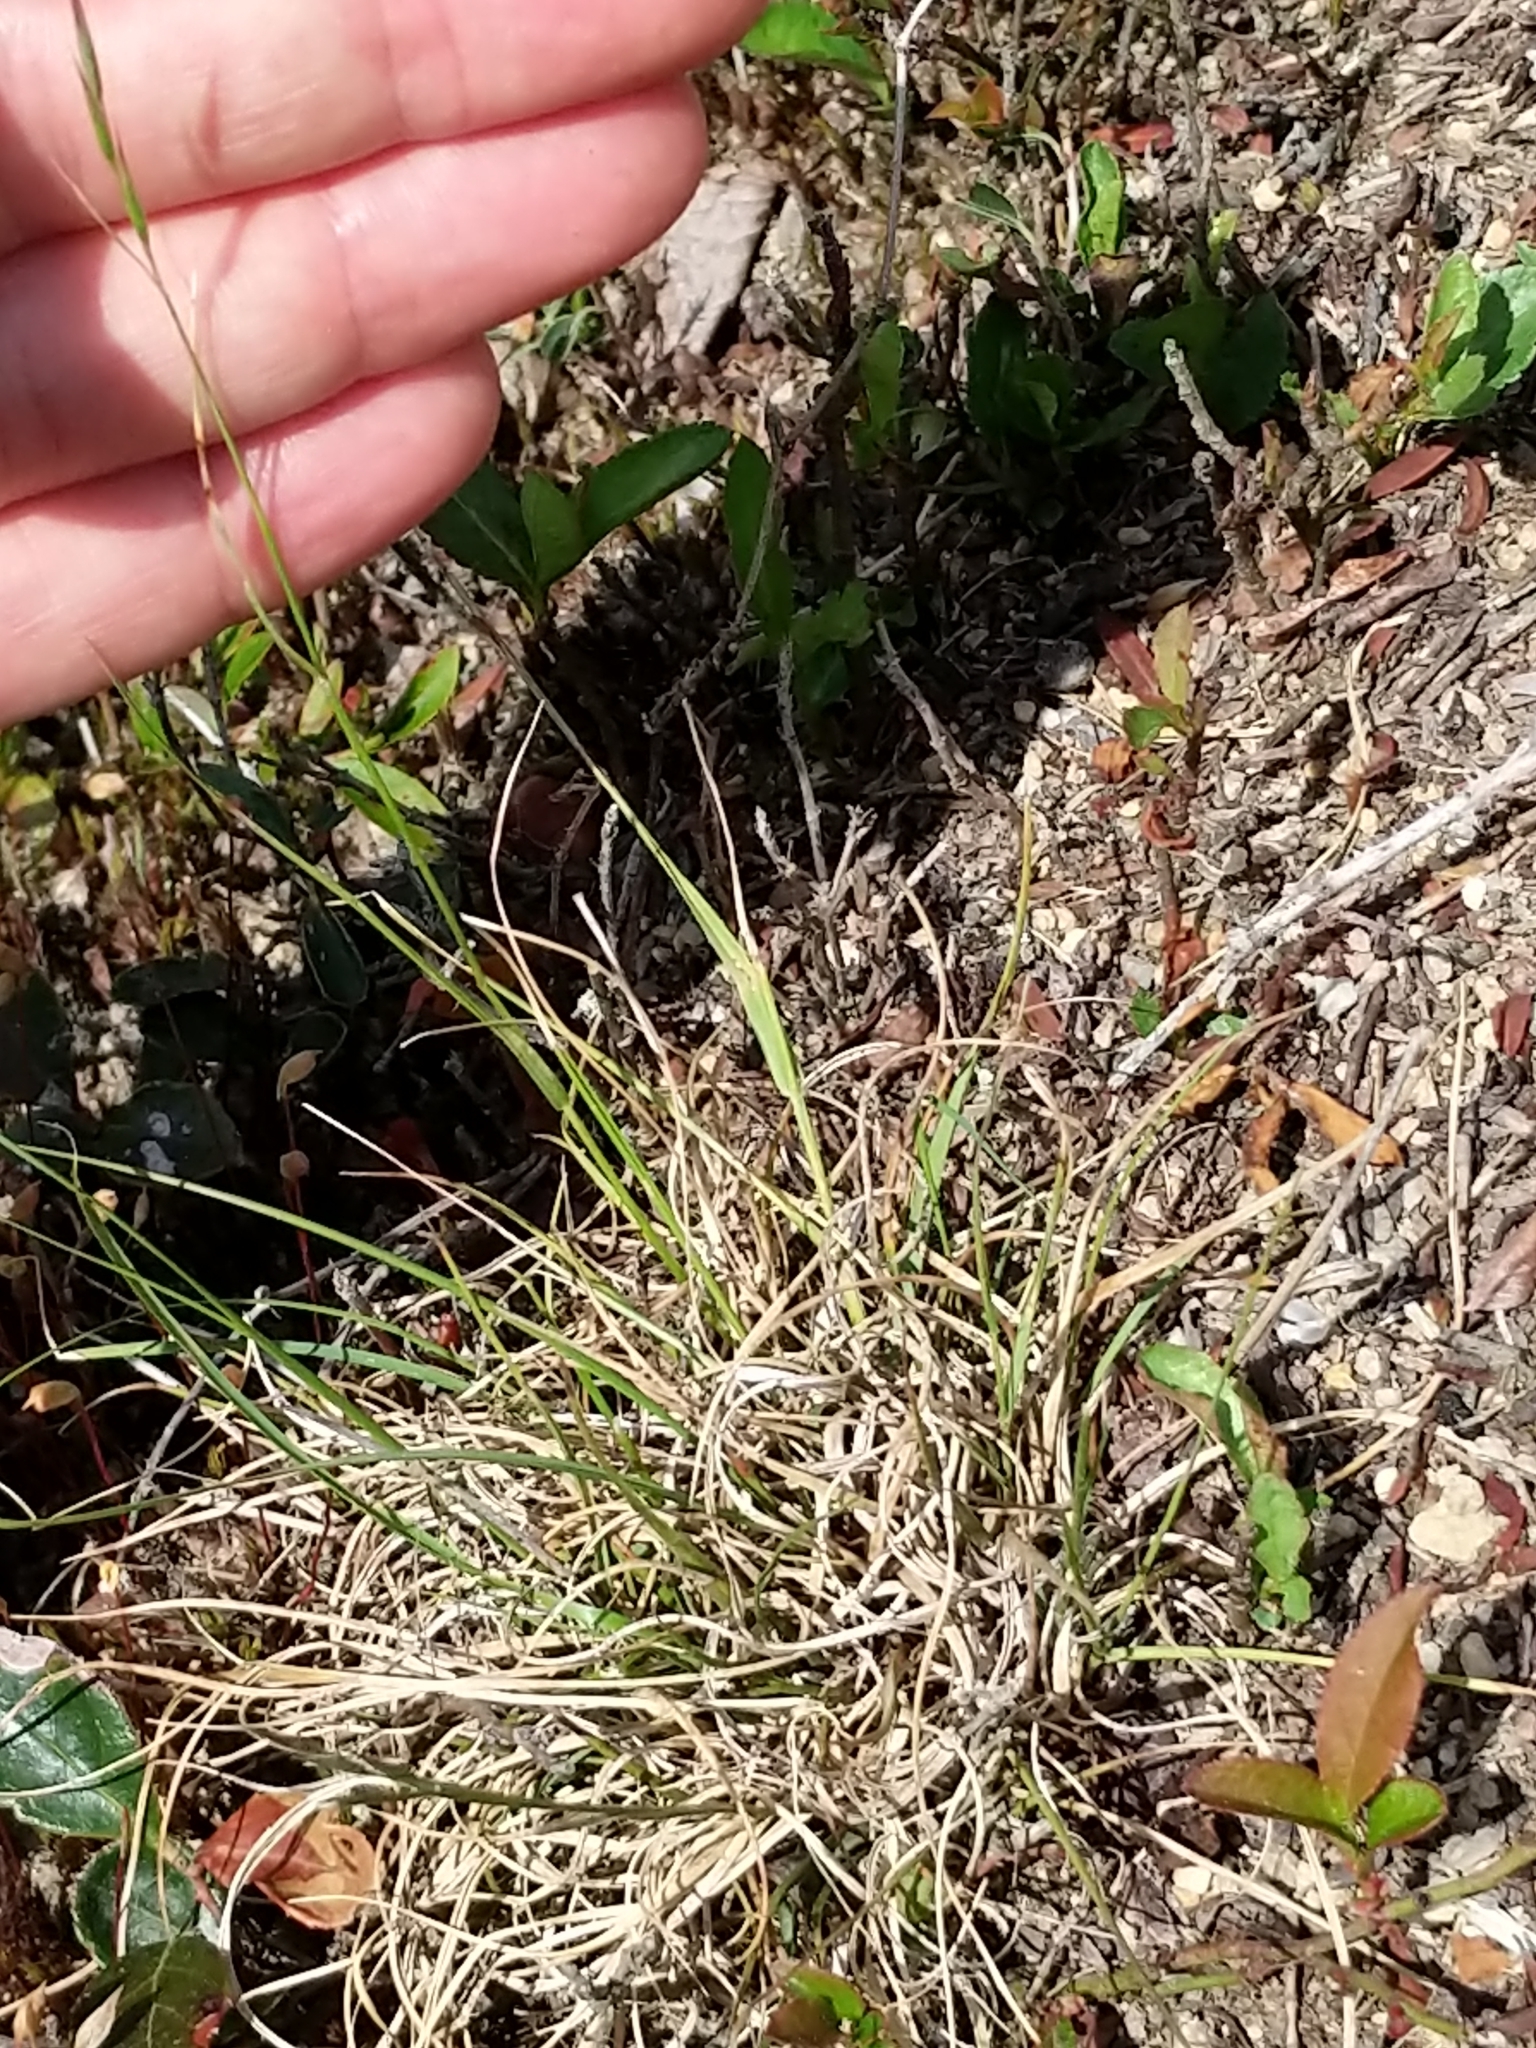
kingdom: Plantae
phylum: Tracheophyta
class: Liliopsida
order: Poales
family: Poaceae
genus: Danthonia
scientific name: Danthonia spicata
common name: Common wild oatgrass
